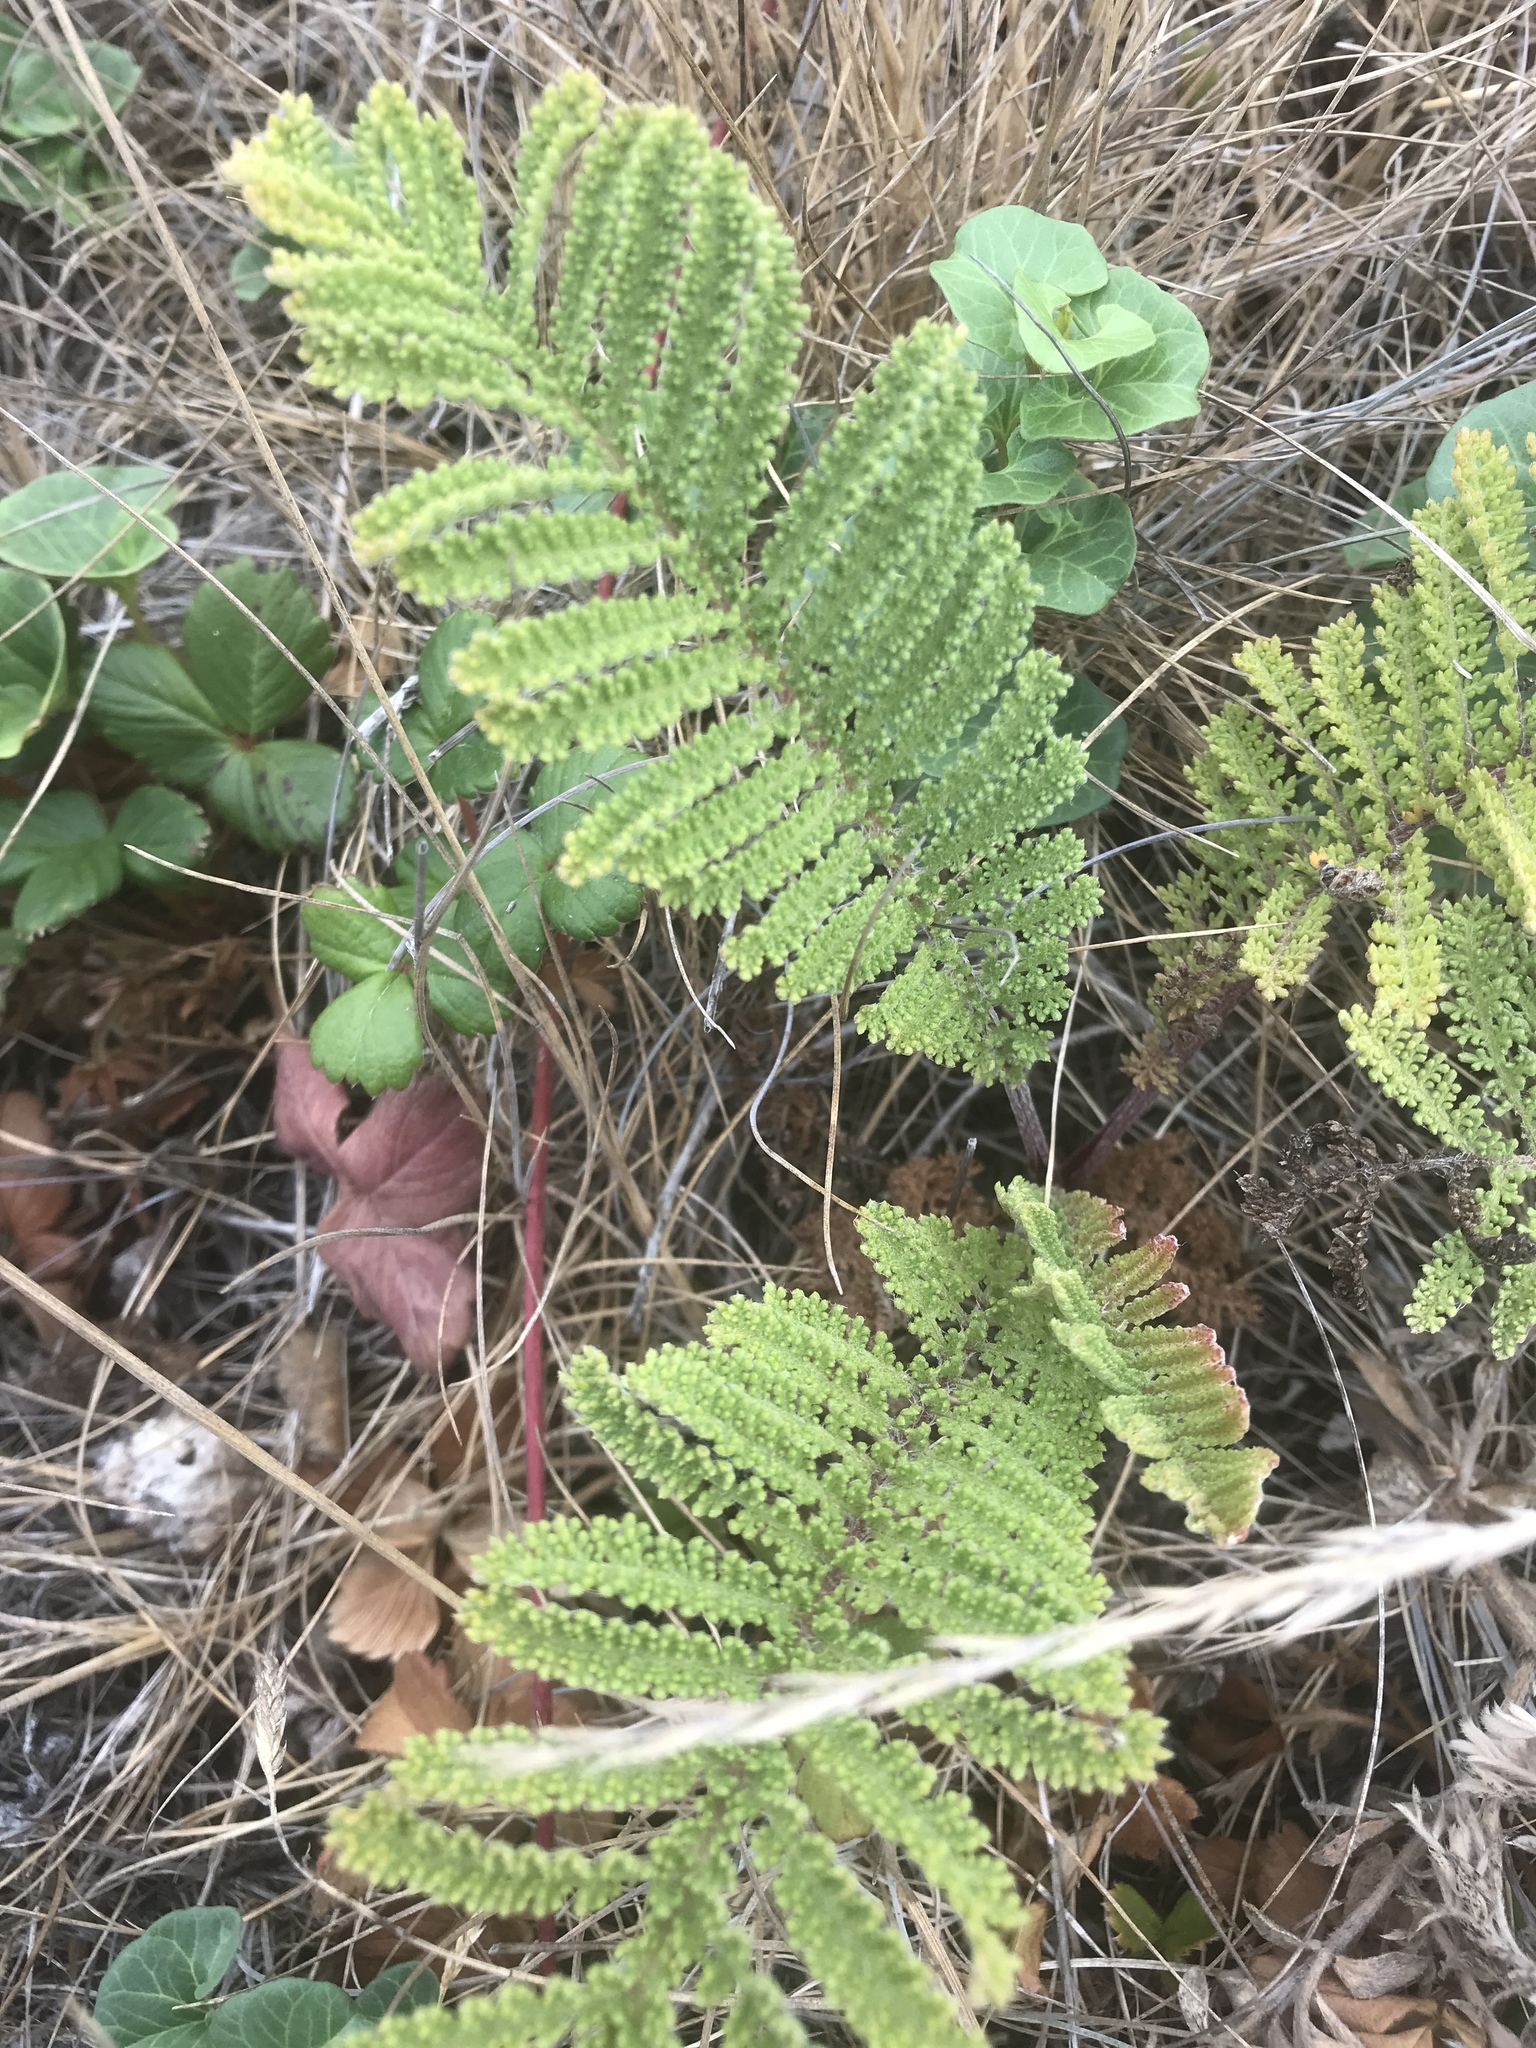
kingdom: Plantae
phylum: Tracheophyta
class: Magnoliopsida
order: Asterales
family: Asteraceae
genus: Tanacetum
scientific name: Tanacetum bipinnatum
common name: Dwarf tansy
